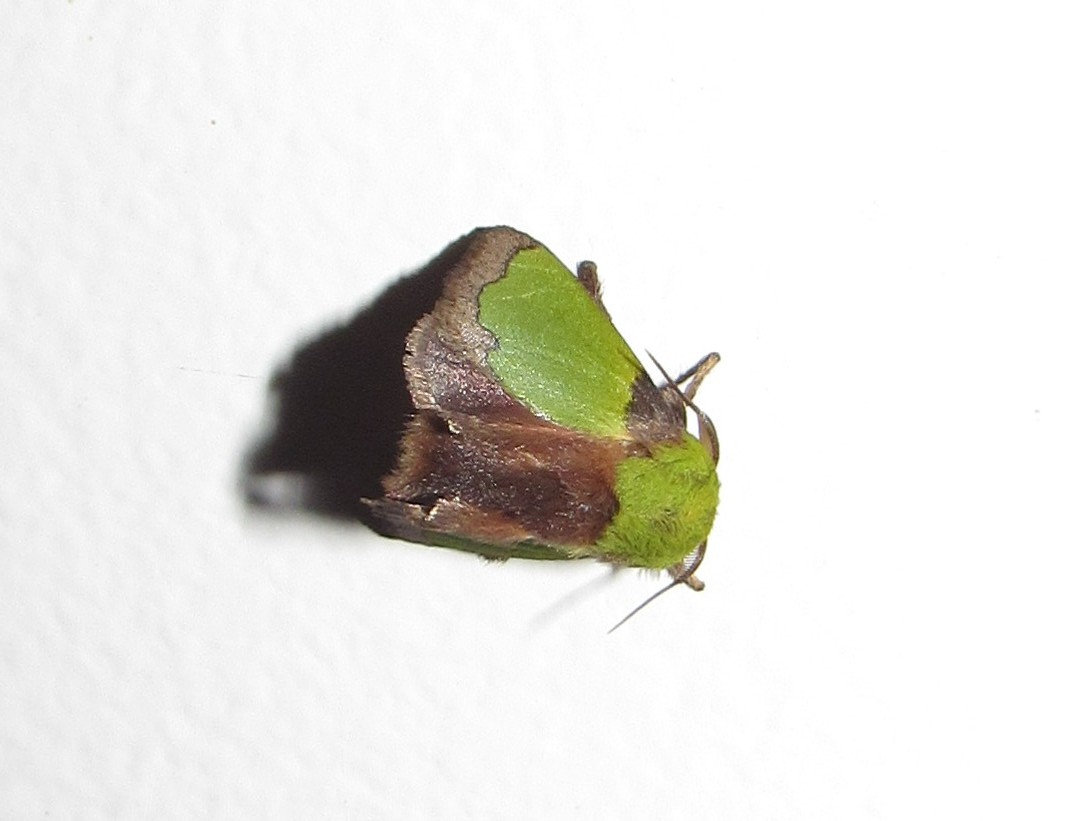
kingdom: Animalia
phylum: Arthropoda
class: Insecta
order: Lepidoptera
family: Limacodidae
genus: Parasa
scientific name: Parasa herbina
